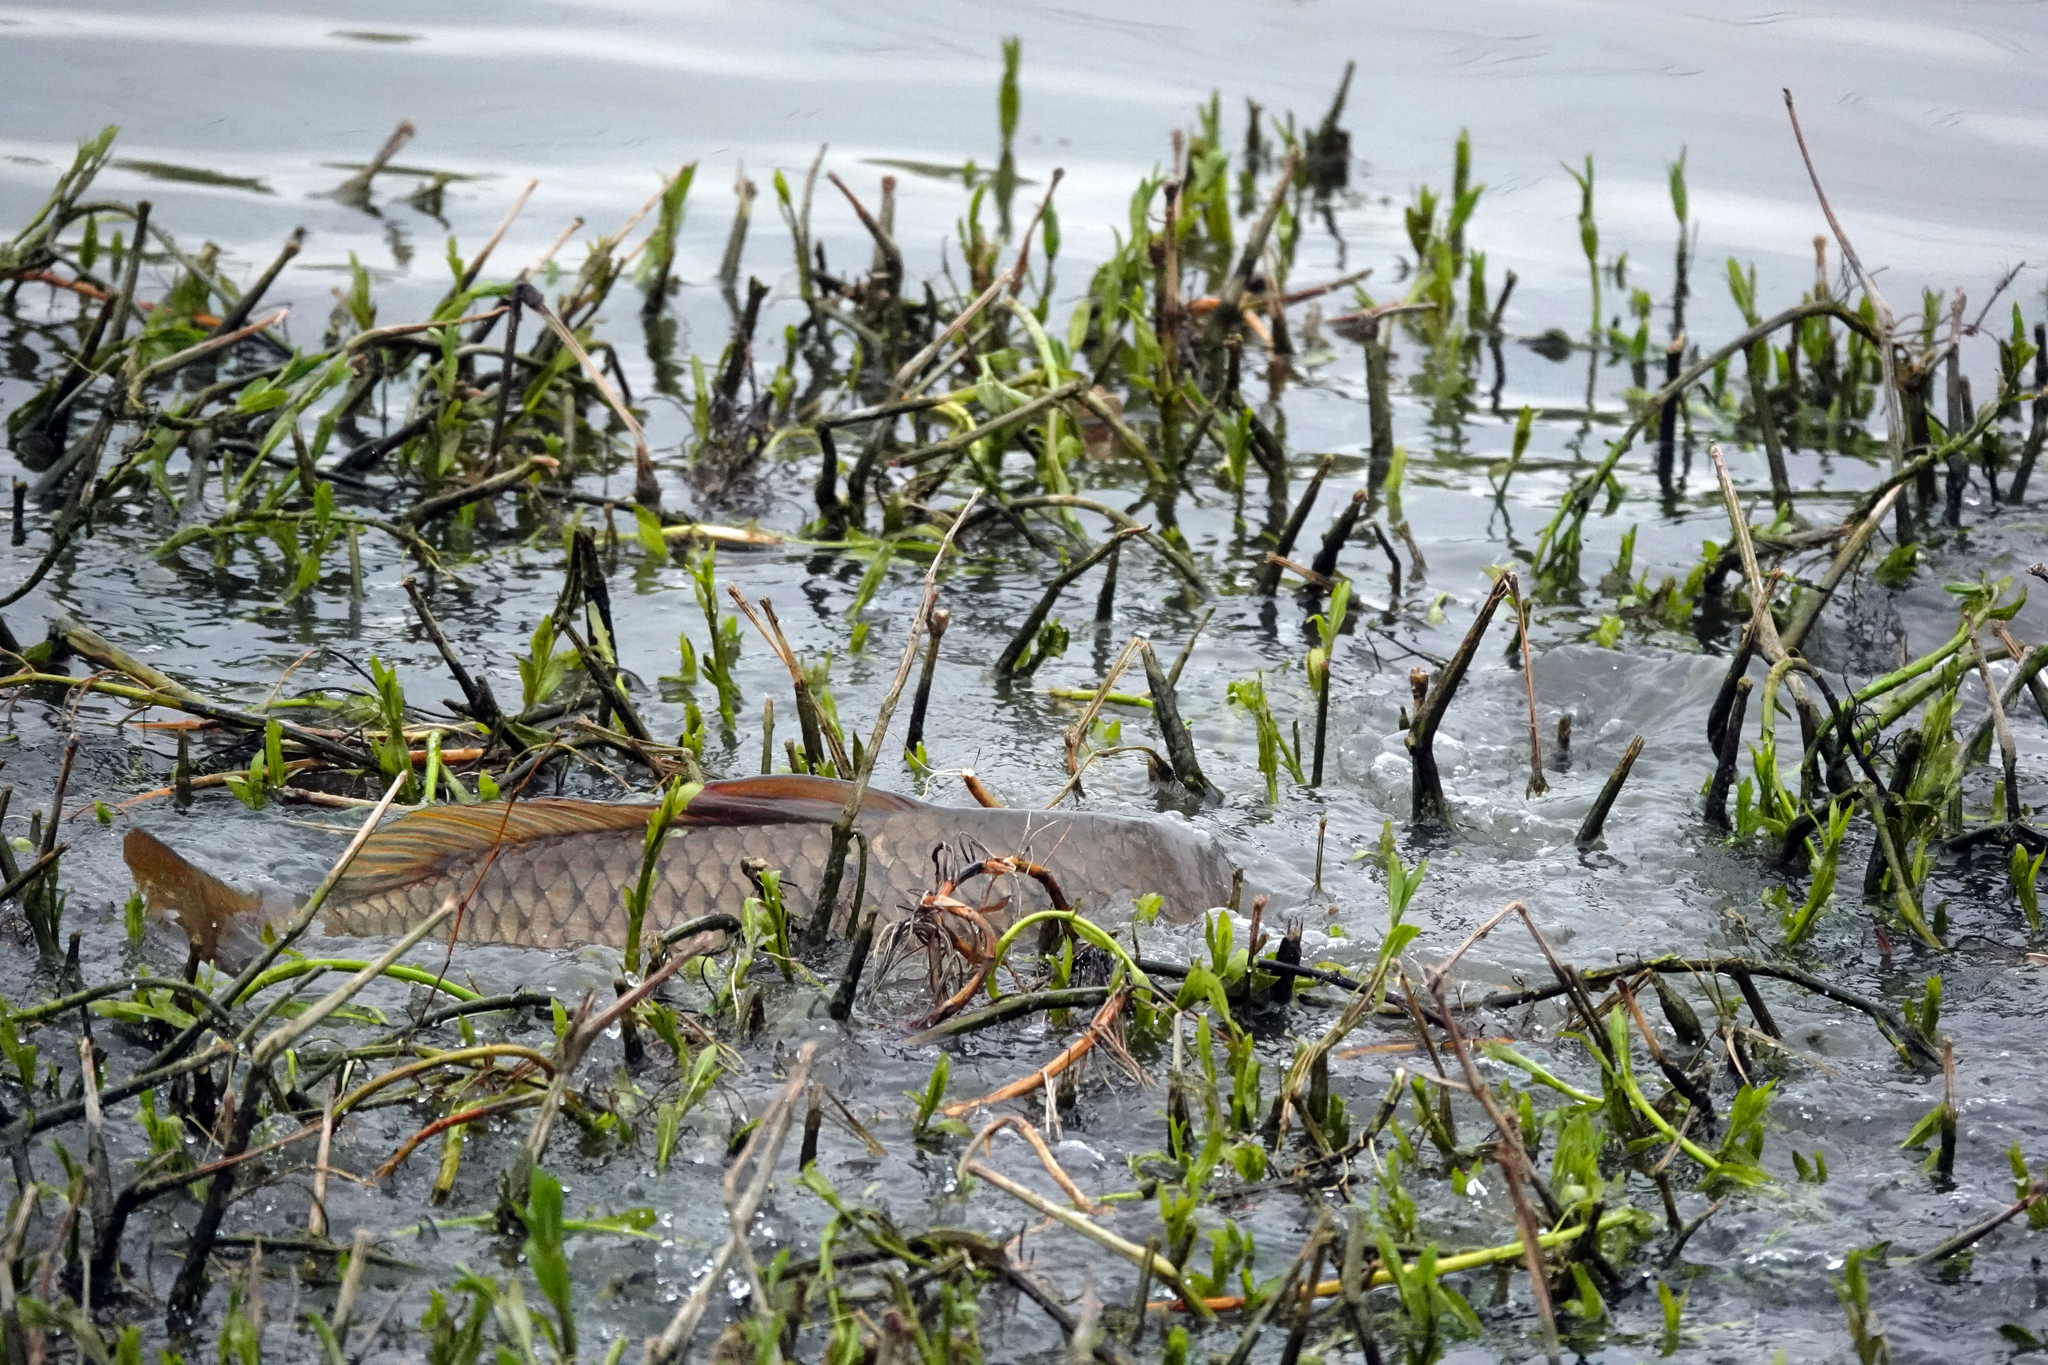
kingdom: Animalia
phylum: Chordata
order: Cypriniformes
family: Cyprinidae
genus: Cyprinus
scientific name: Cyprinus carpio
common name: Common carp
